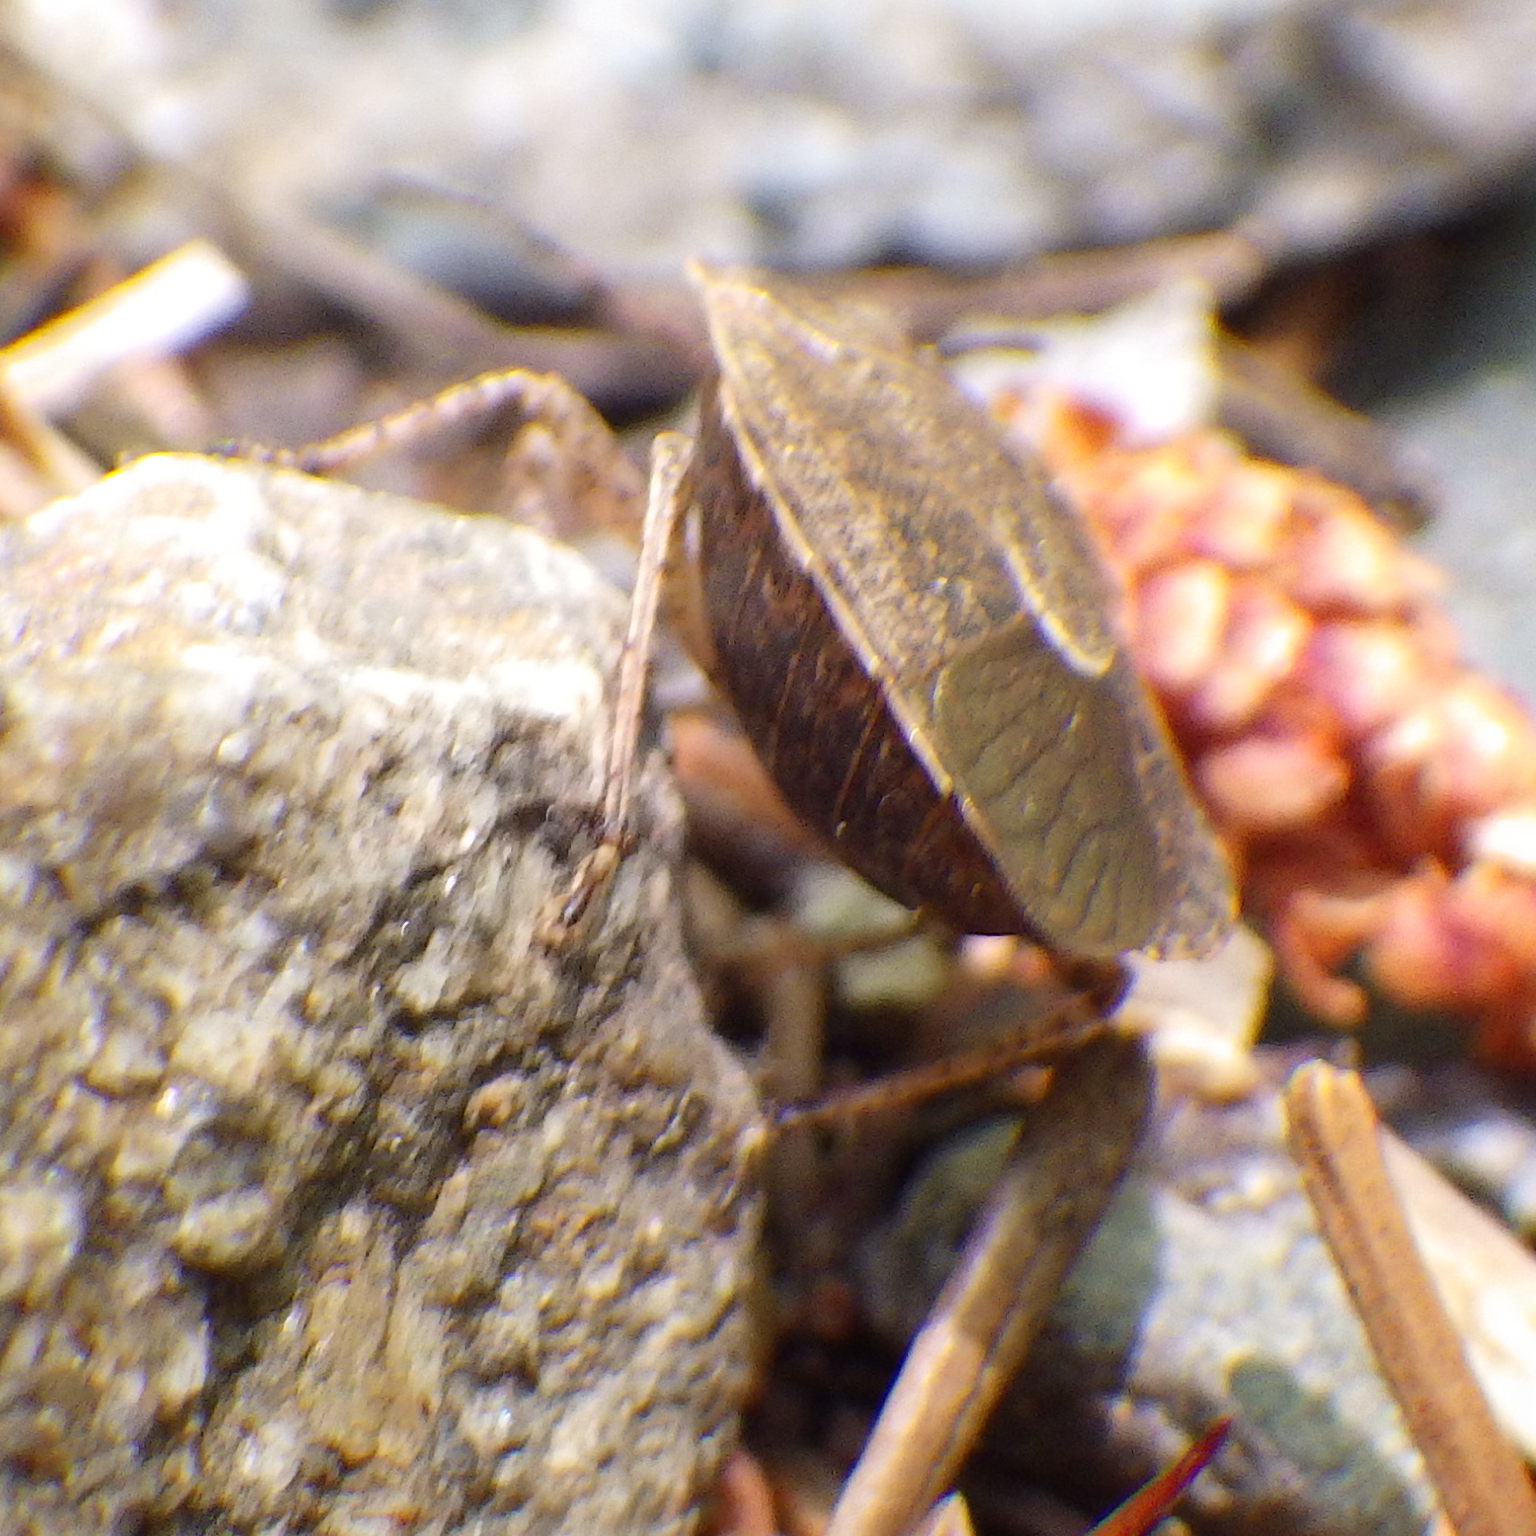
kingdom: Animalia
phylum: Arthropoda
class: Insecta
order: Hemiptera
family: Pentatomidae
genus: Menecles
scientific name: Menecles insertus
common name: Elf shoe stink bug
